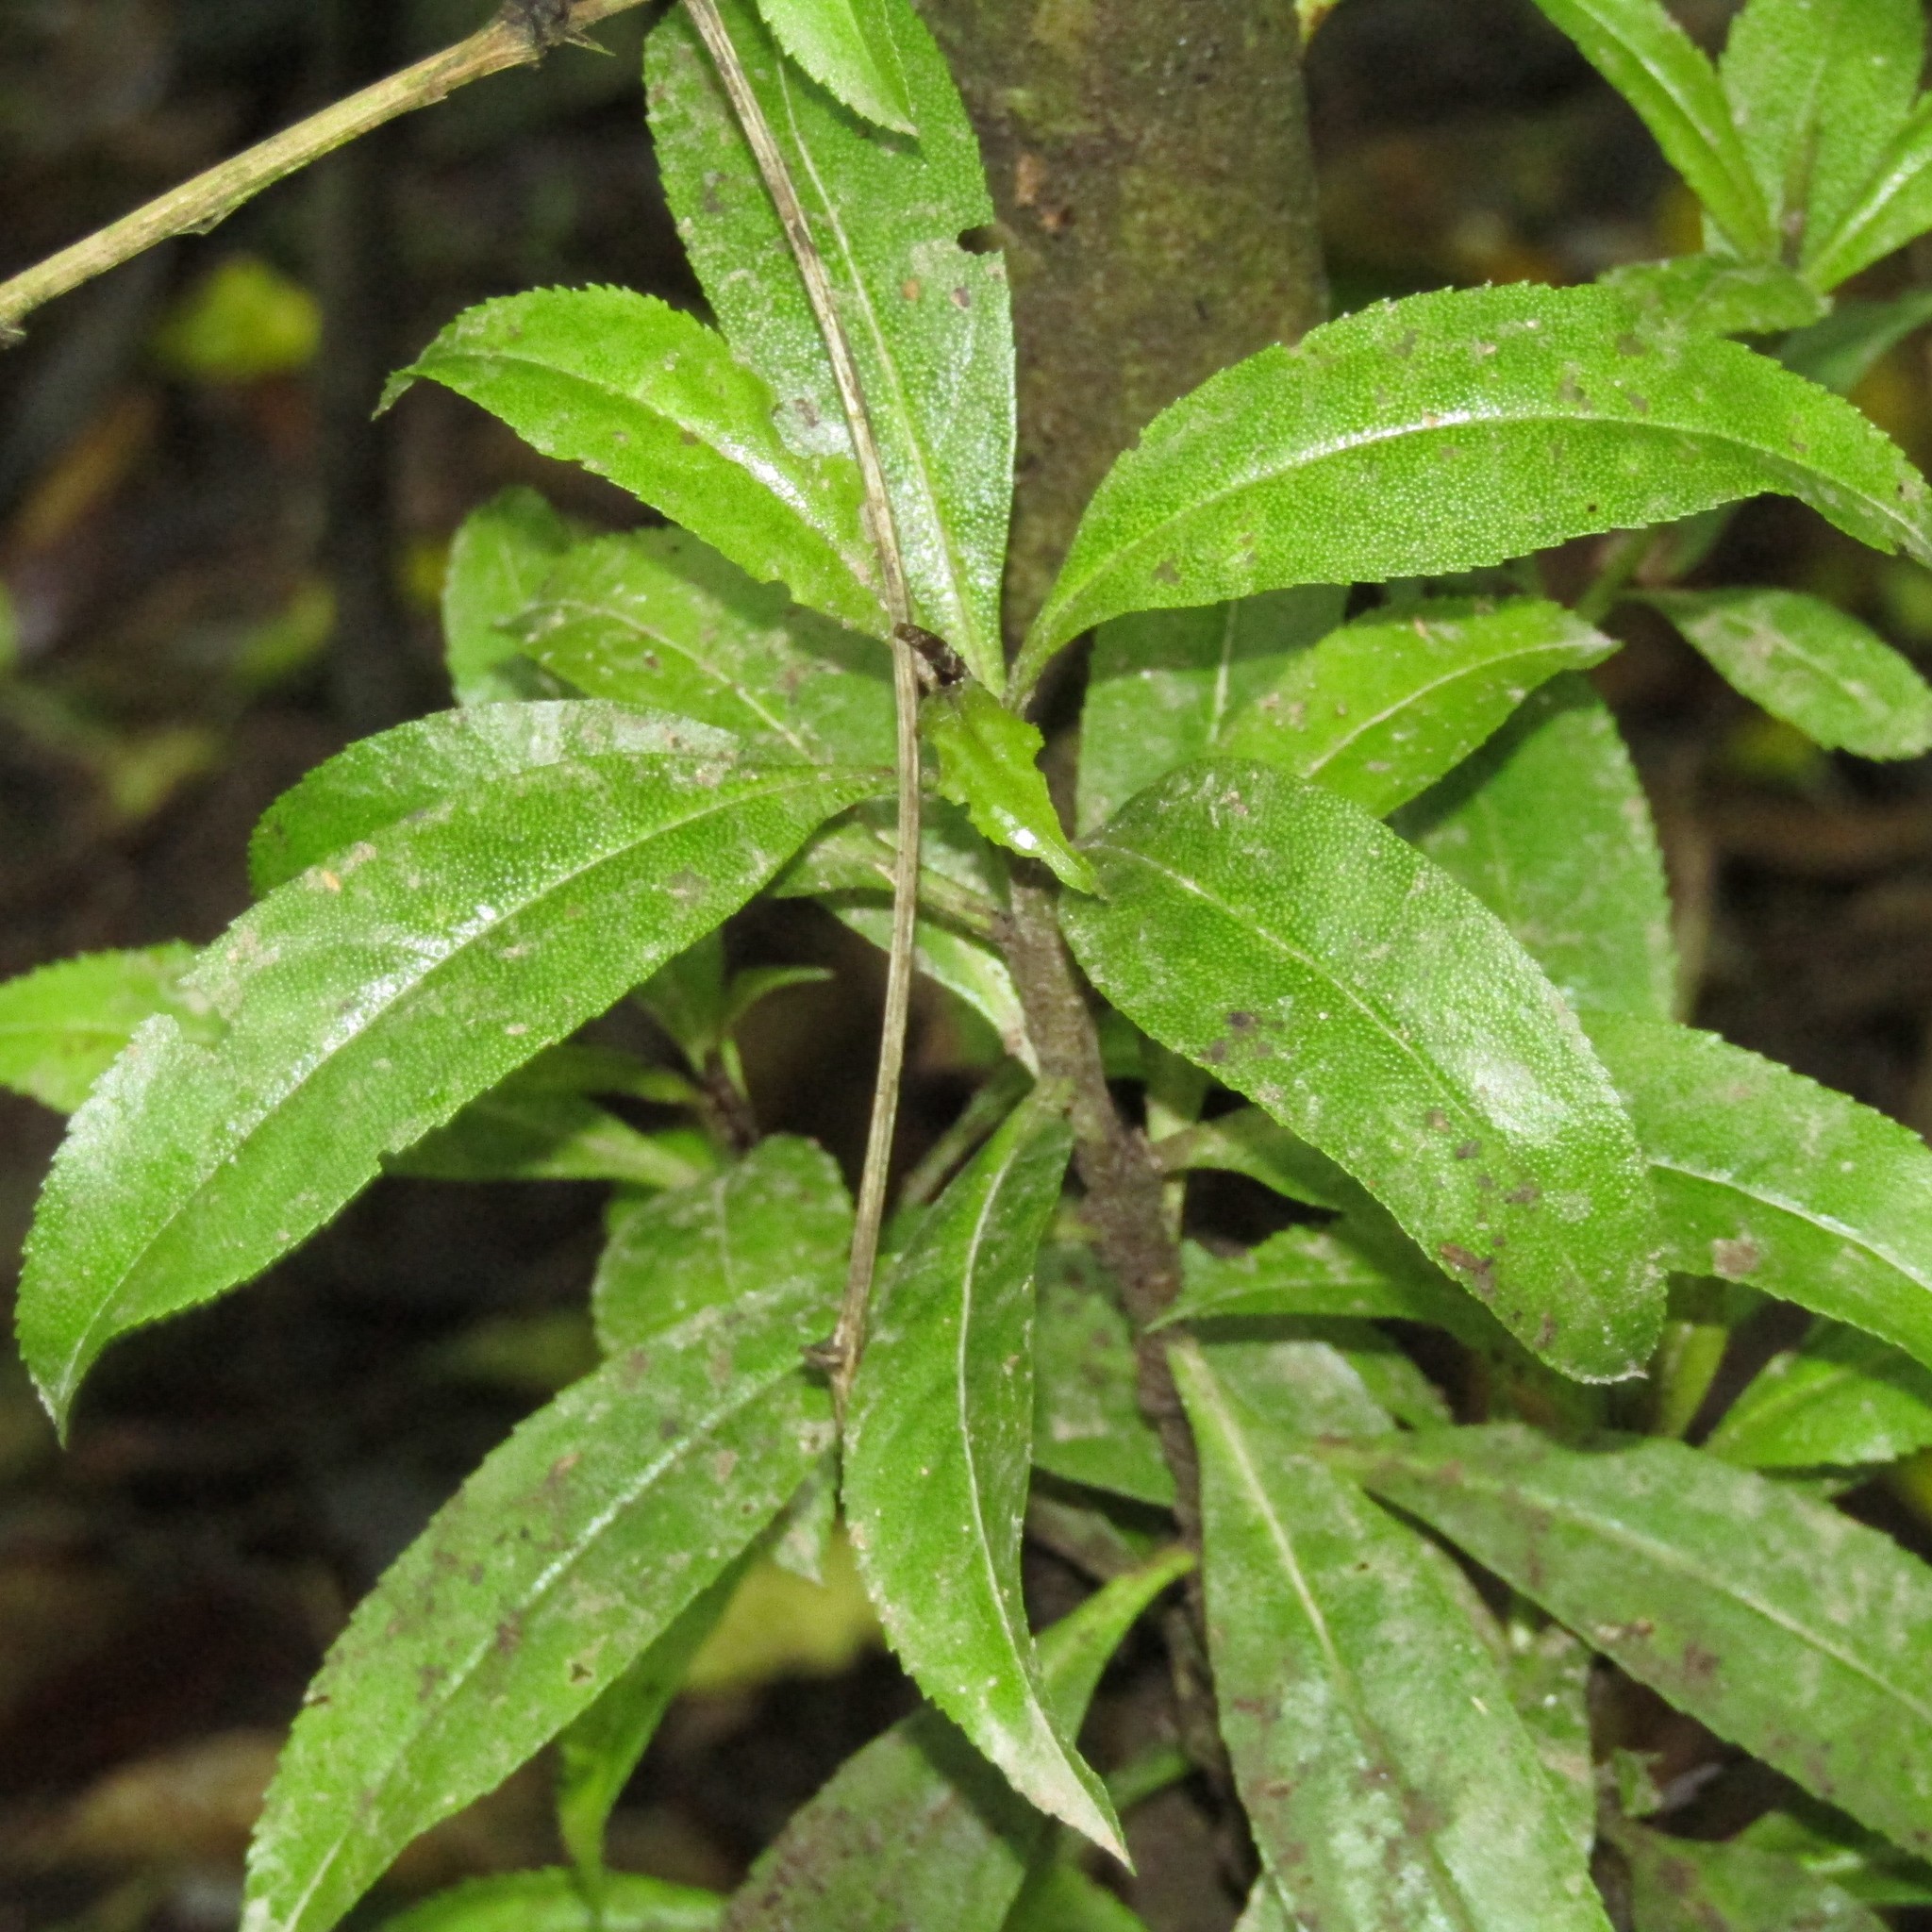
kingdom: Plantae
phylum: Tracheophyta
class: Magnoliopsida
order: Lamiales
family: Scrophulariaceae
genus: Myoporum
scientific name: Myoporum laetum
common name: Ngaio tree
